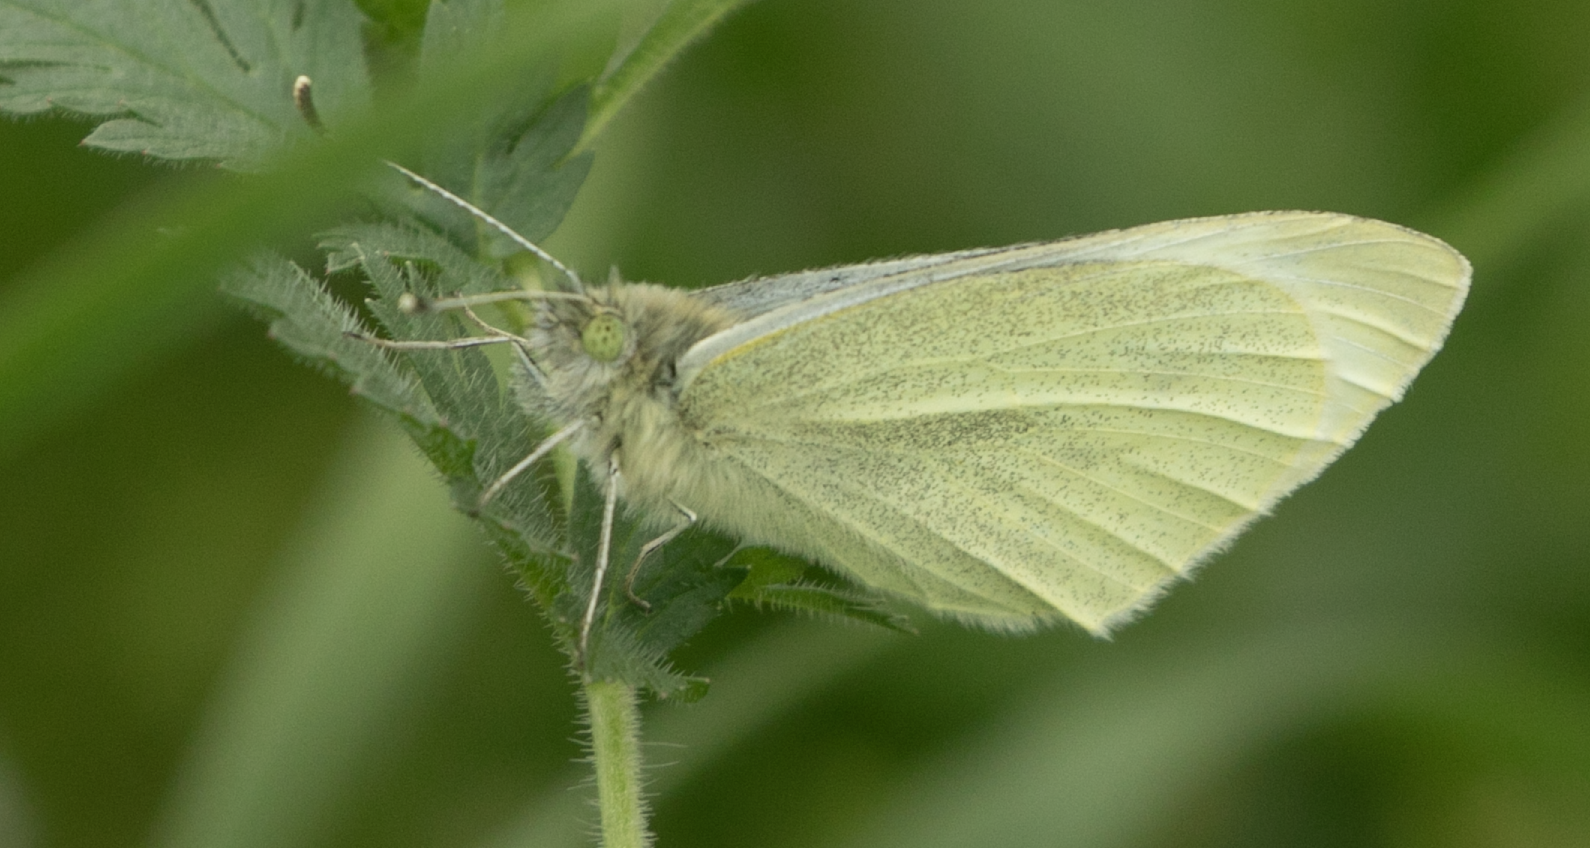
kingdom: Animalia
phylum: Arthropoda
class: Insecta
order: Lepidoptera
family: Pieridae
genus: Pieris
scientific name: Pieris rapae
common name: Small white
